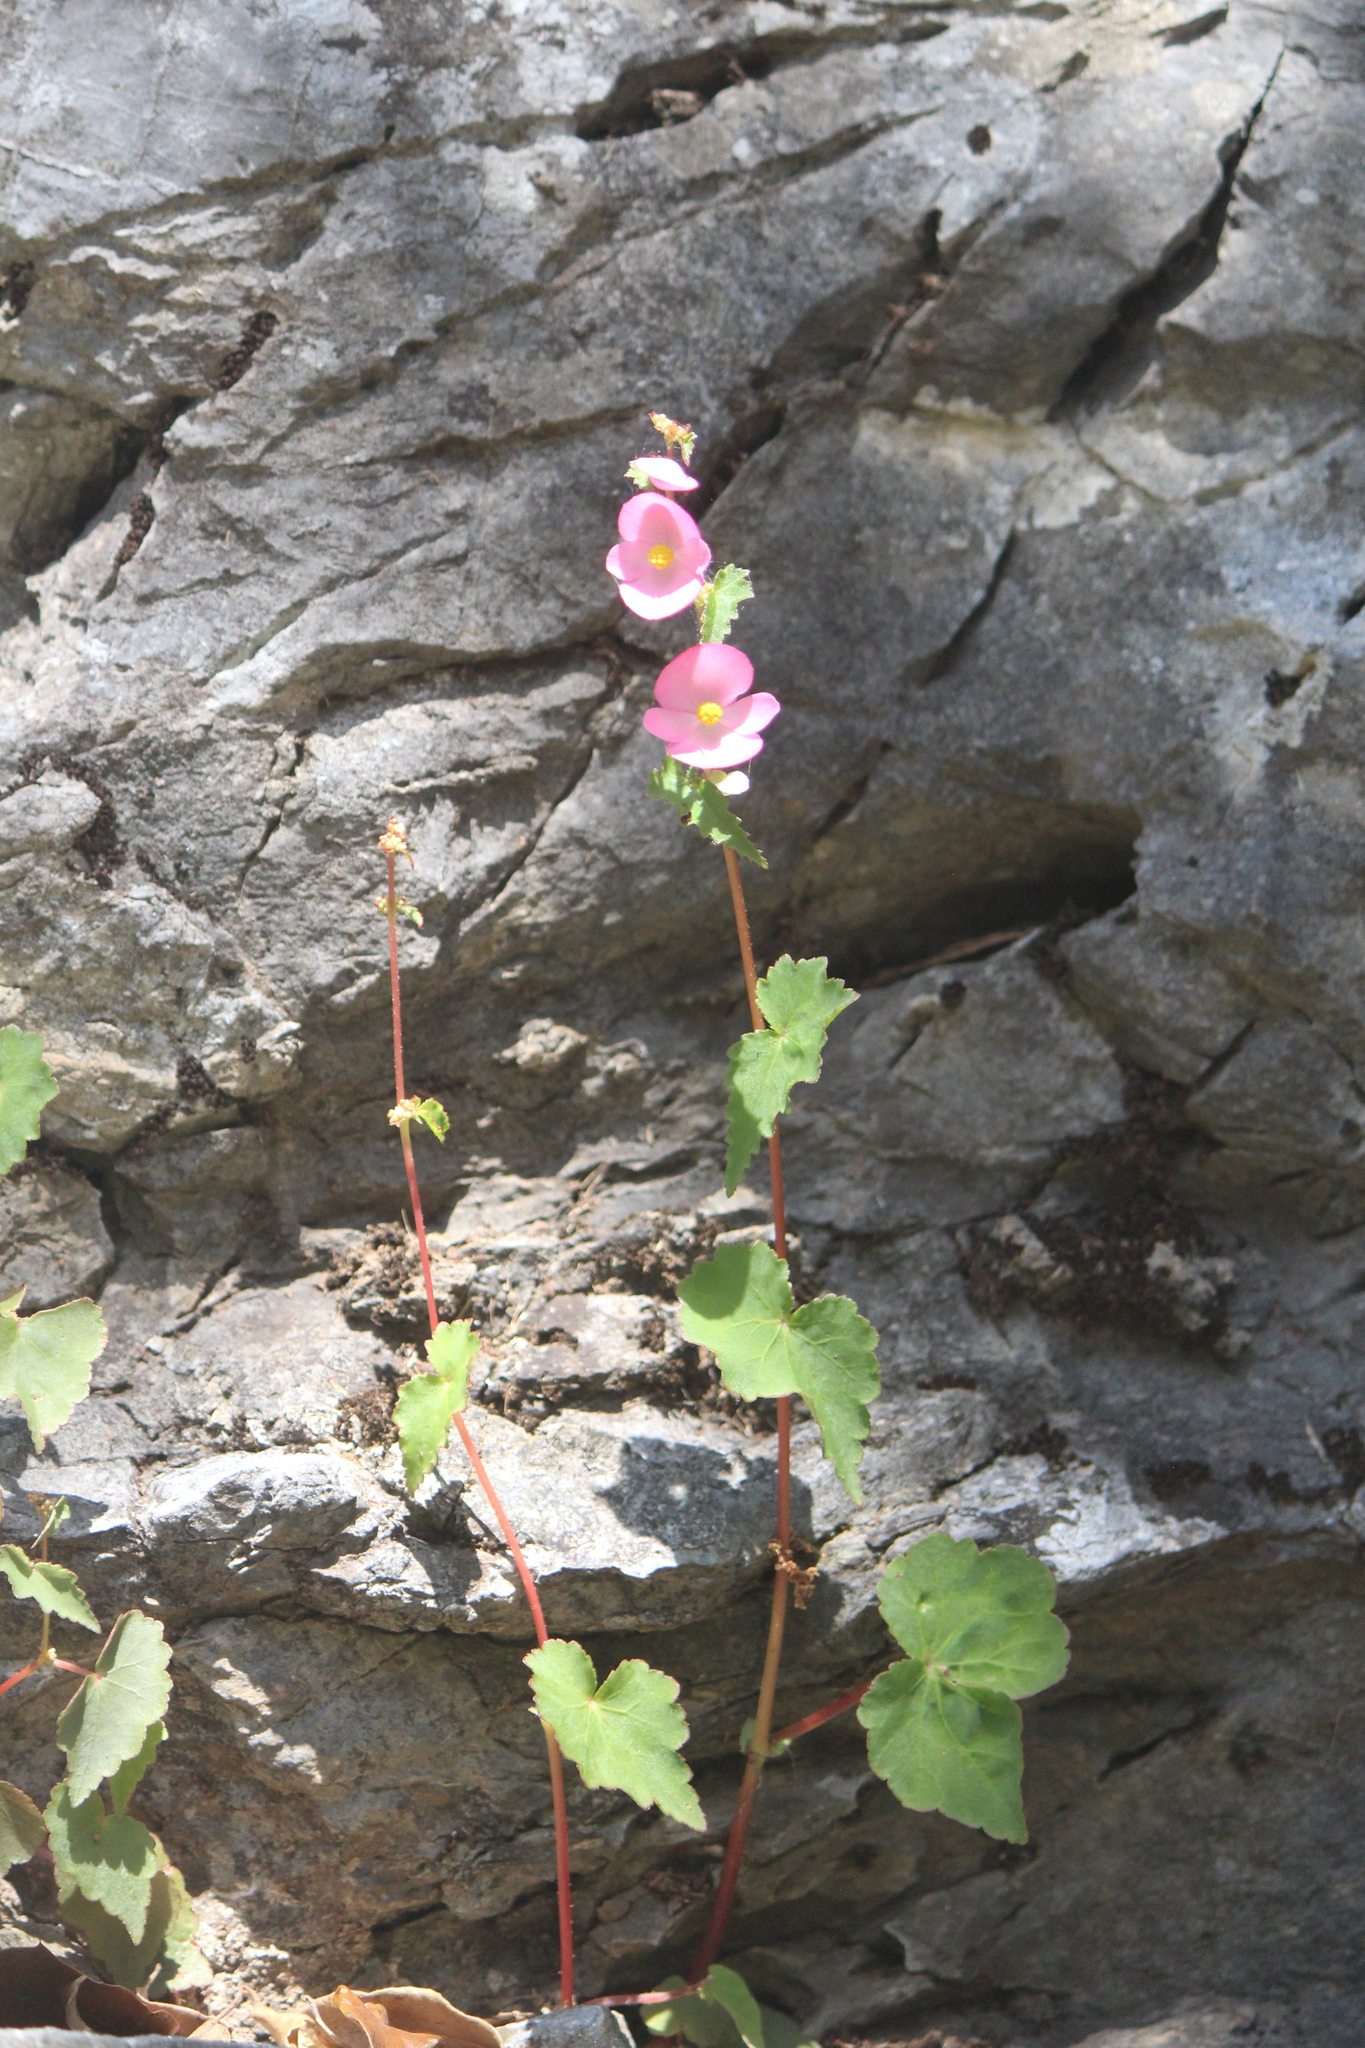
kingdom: Plantae
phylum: Tracheophyta
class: Magnoliopsida
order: Cucurbitales
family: Begoniaceae
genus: Begonia
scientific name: Begonia bulbillifera
